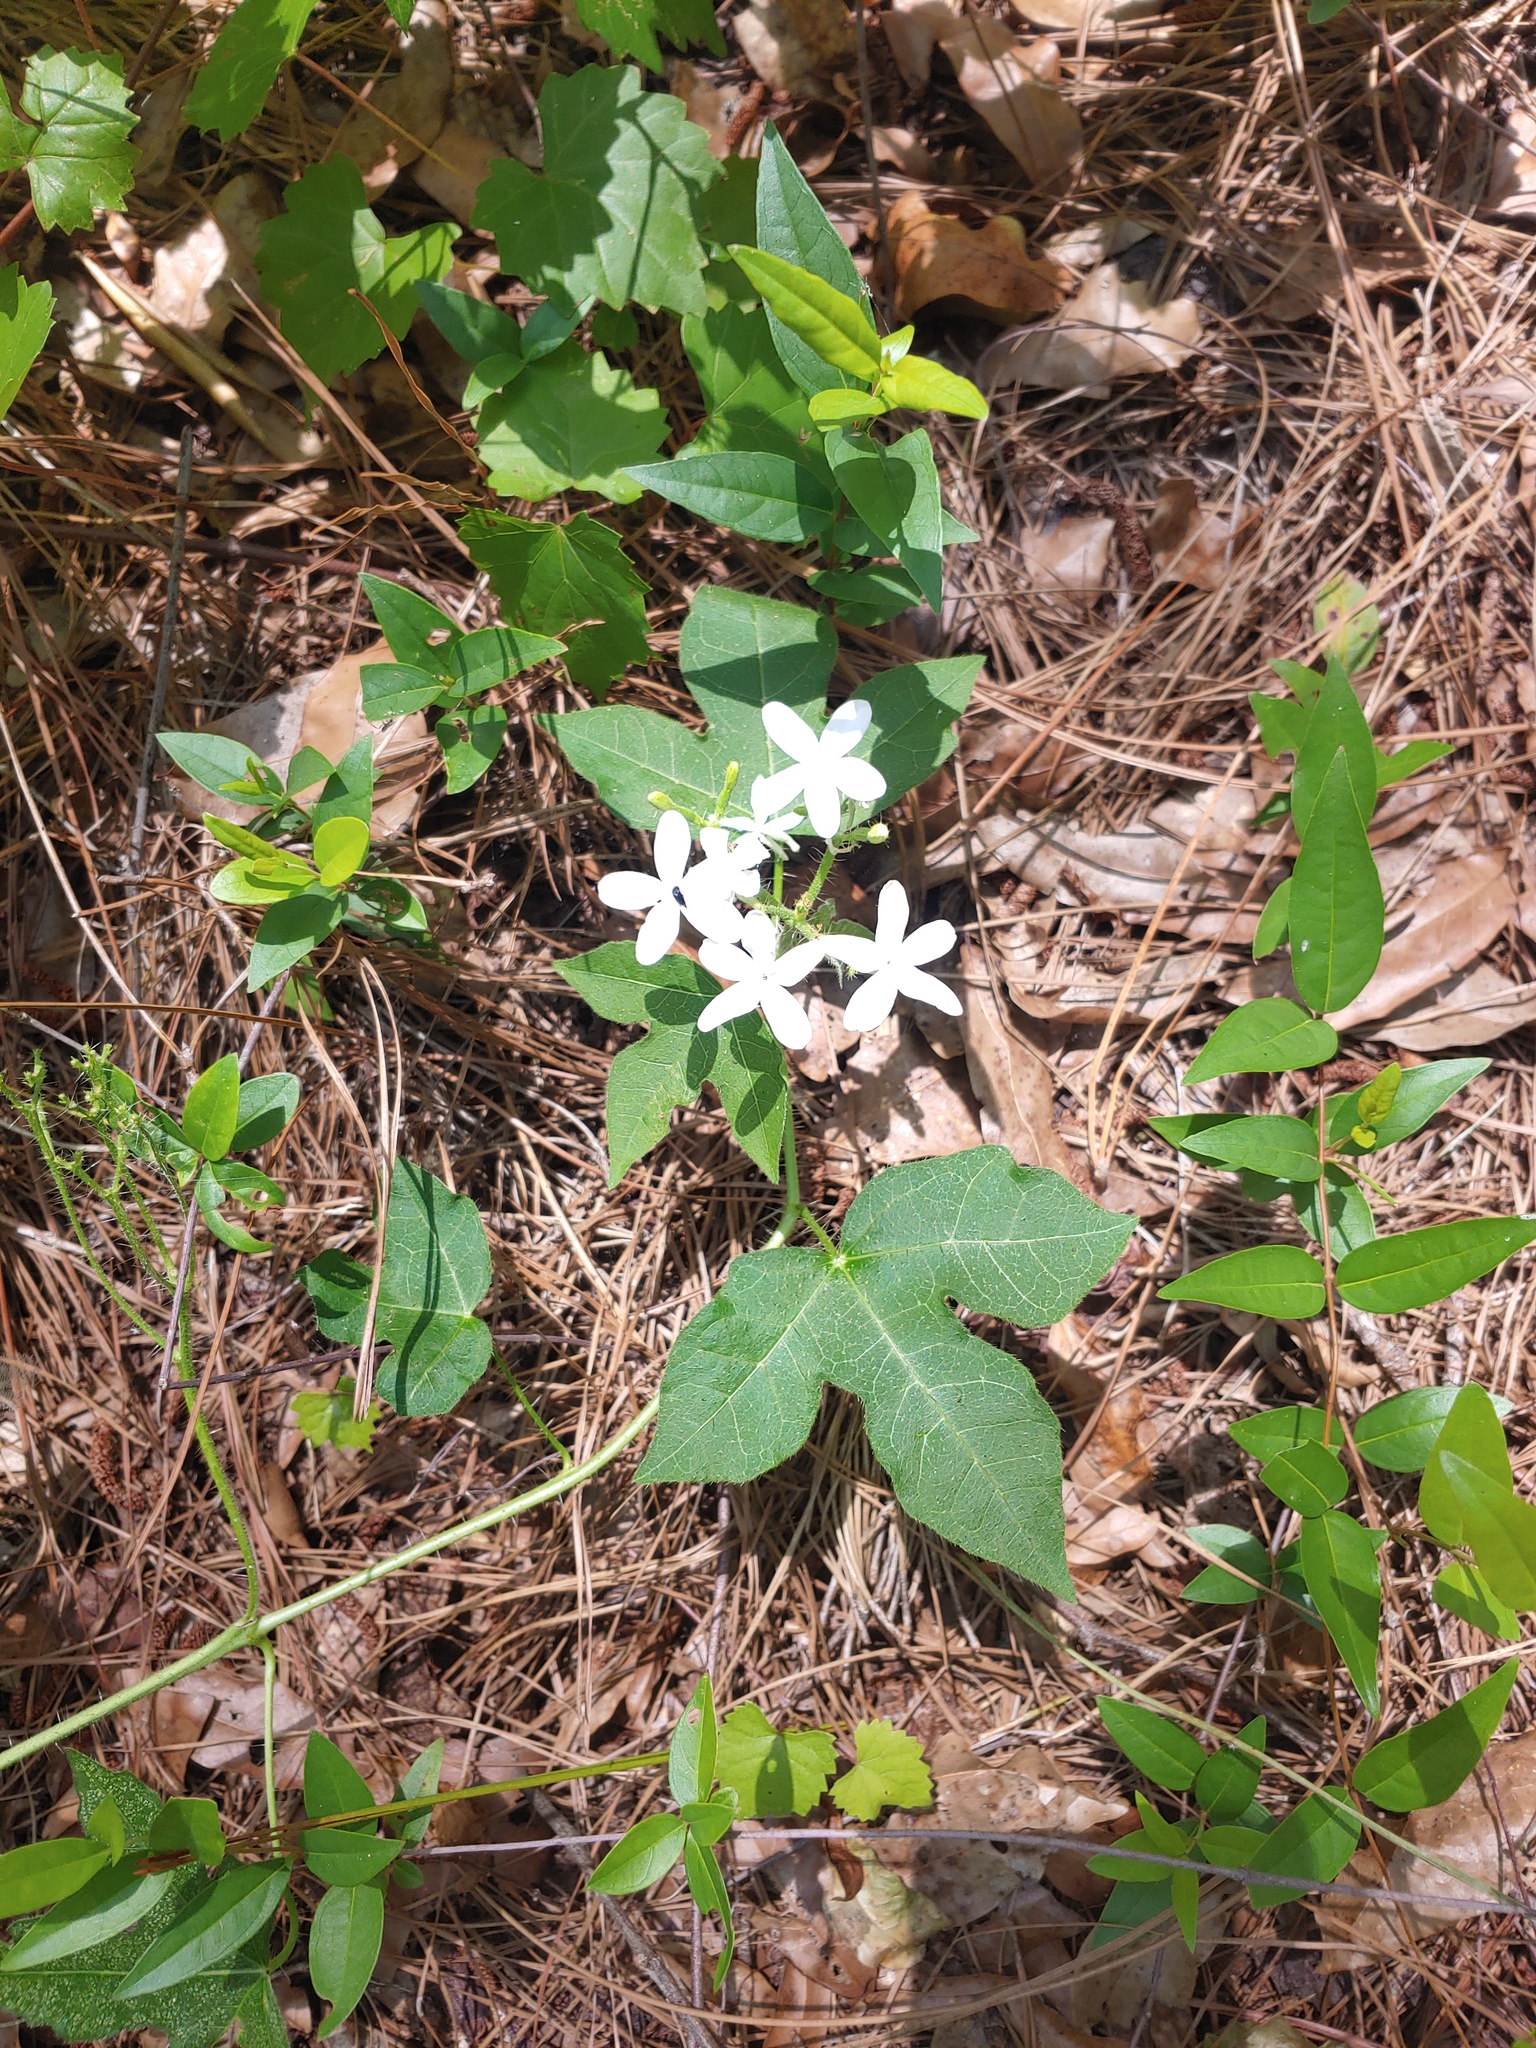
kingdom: Plantae
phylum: Tracheophyta
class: Magnoliopsida
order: Malpighiales
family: Euphorbiaceae
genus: Cnidoscolus
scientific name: Cnidoscolus stimulosus
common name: Bull-nettle
